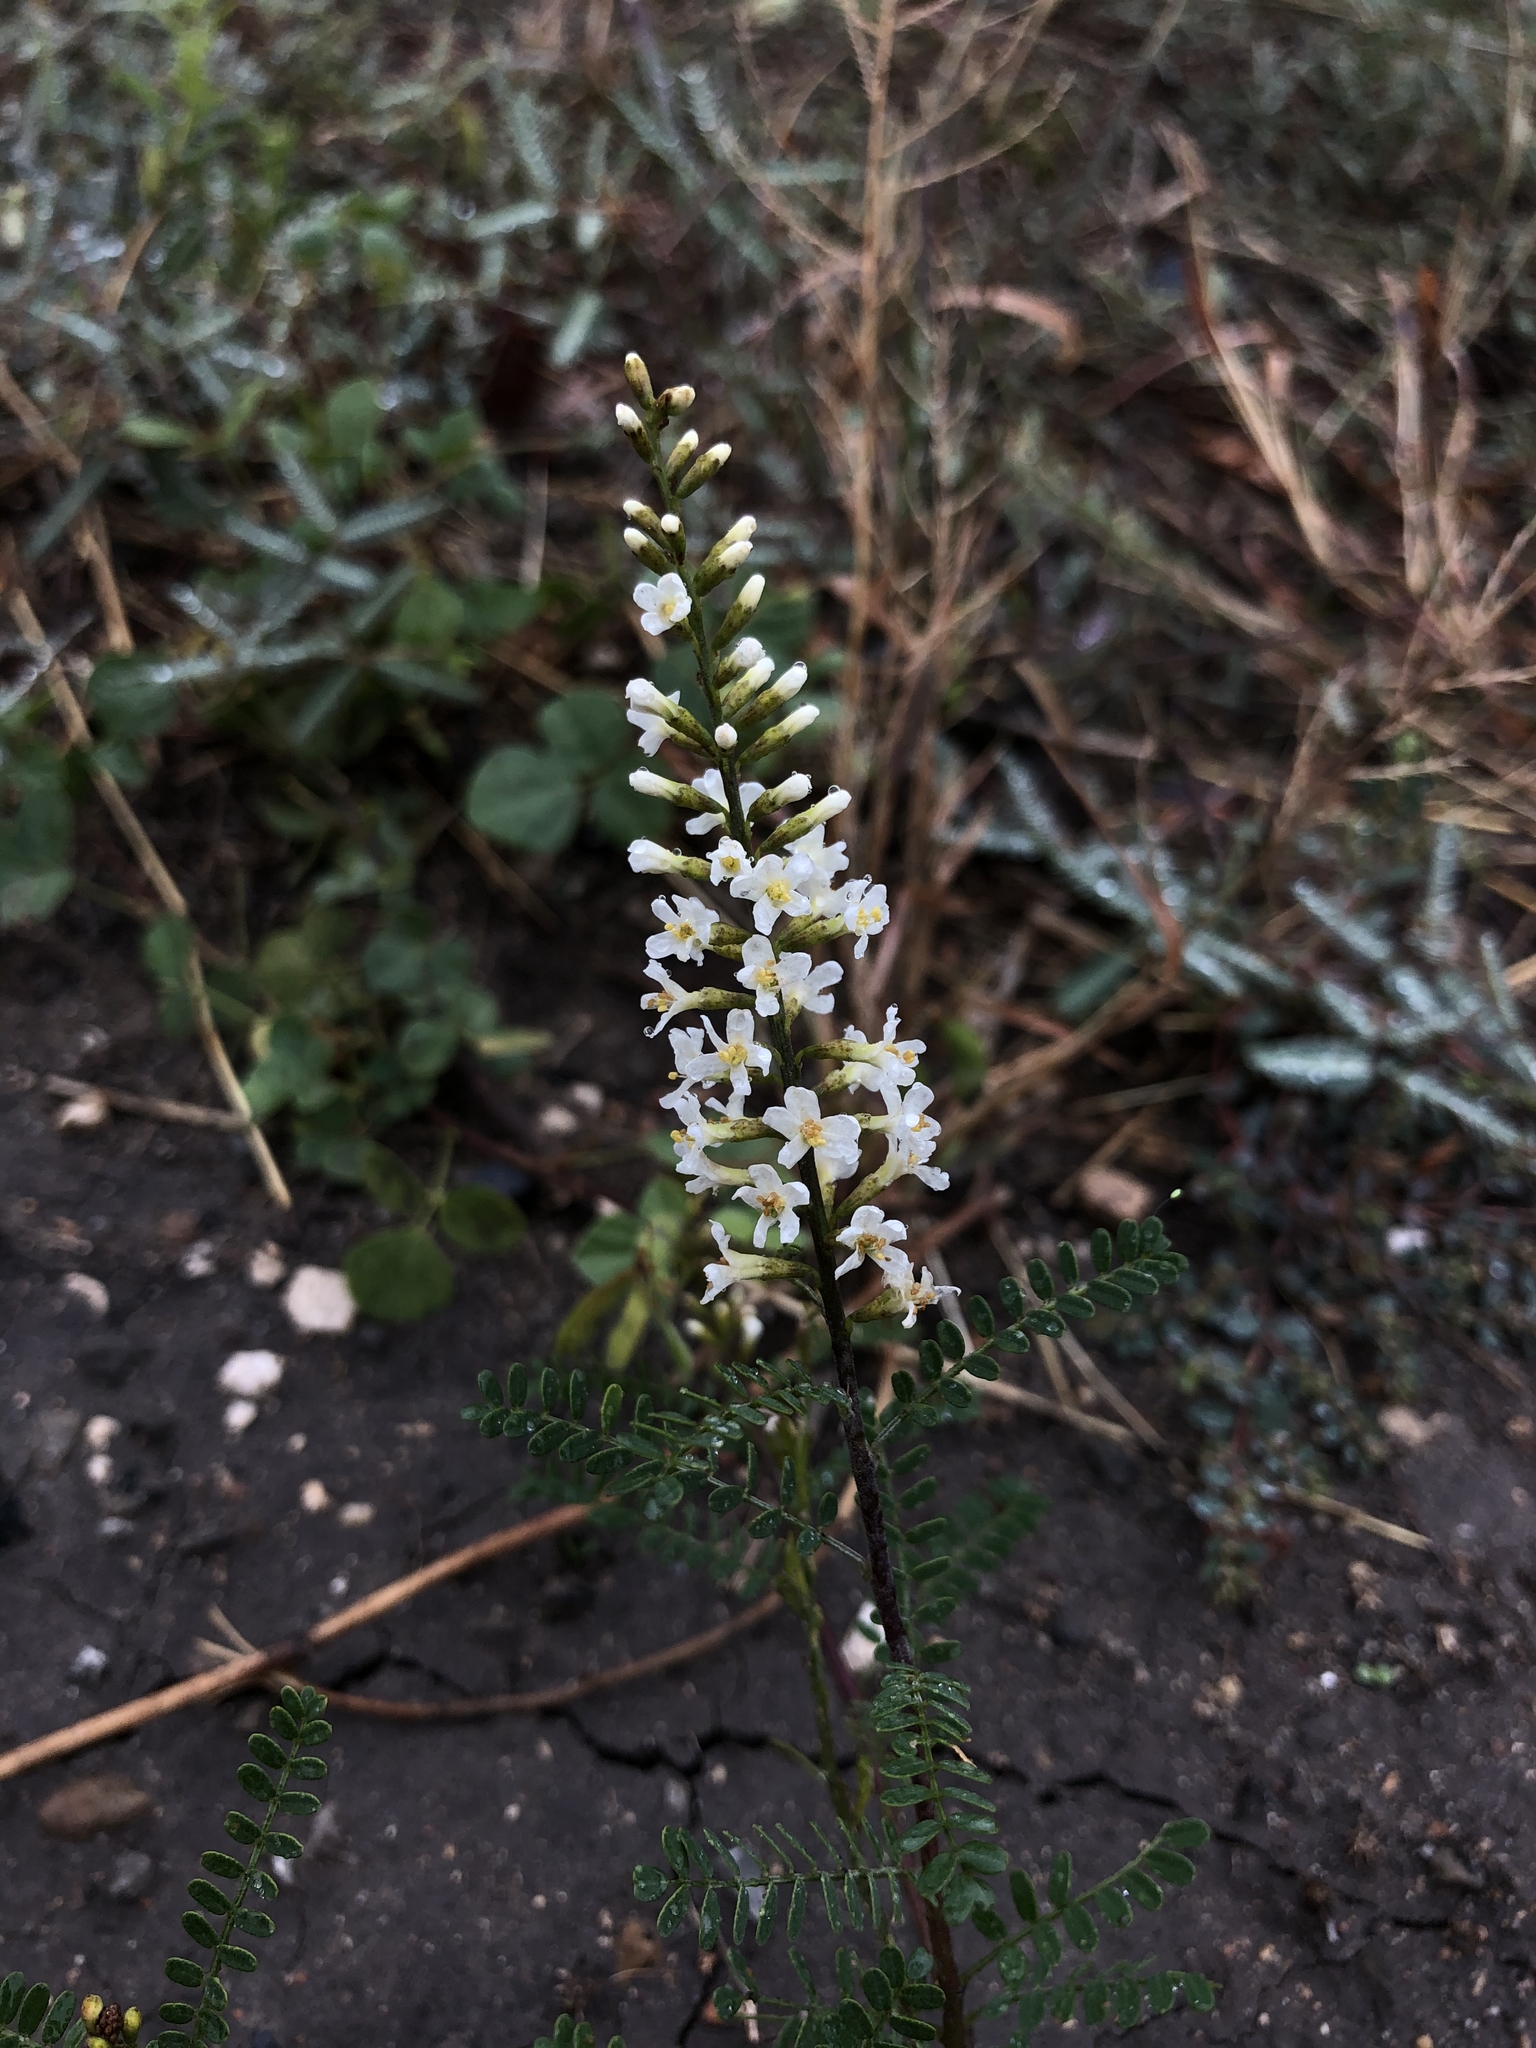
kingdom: Plantae
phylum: Tracheophyta
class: Magnoliopsida
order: Fabales
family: Fabaceae
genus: Eysenhardtia
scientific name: Eysenhardtia texana
